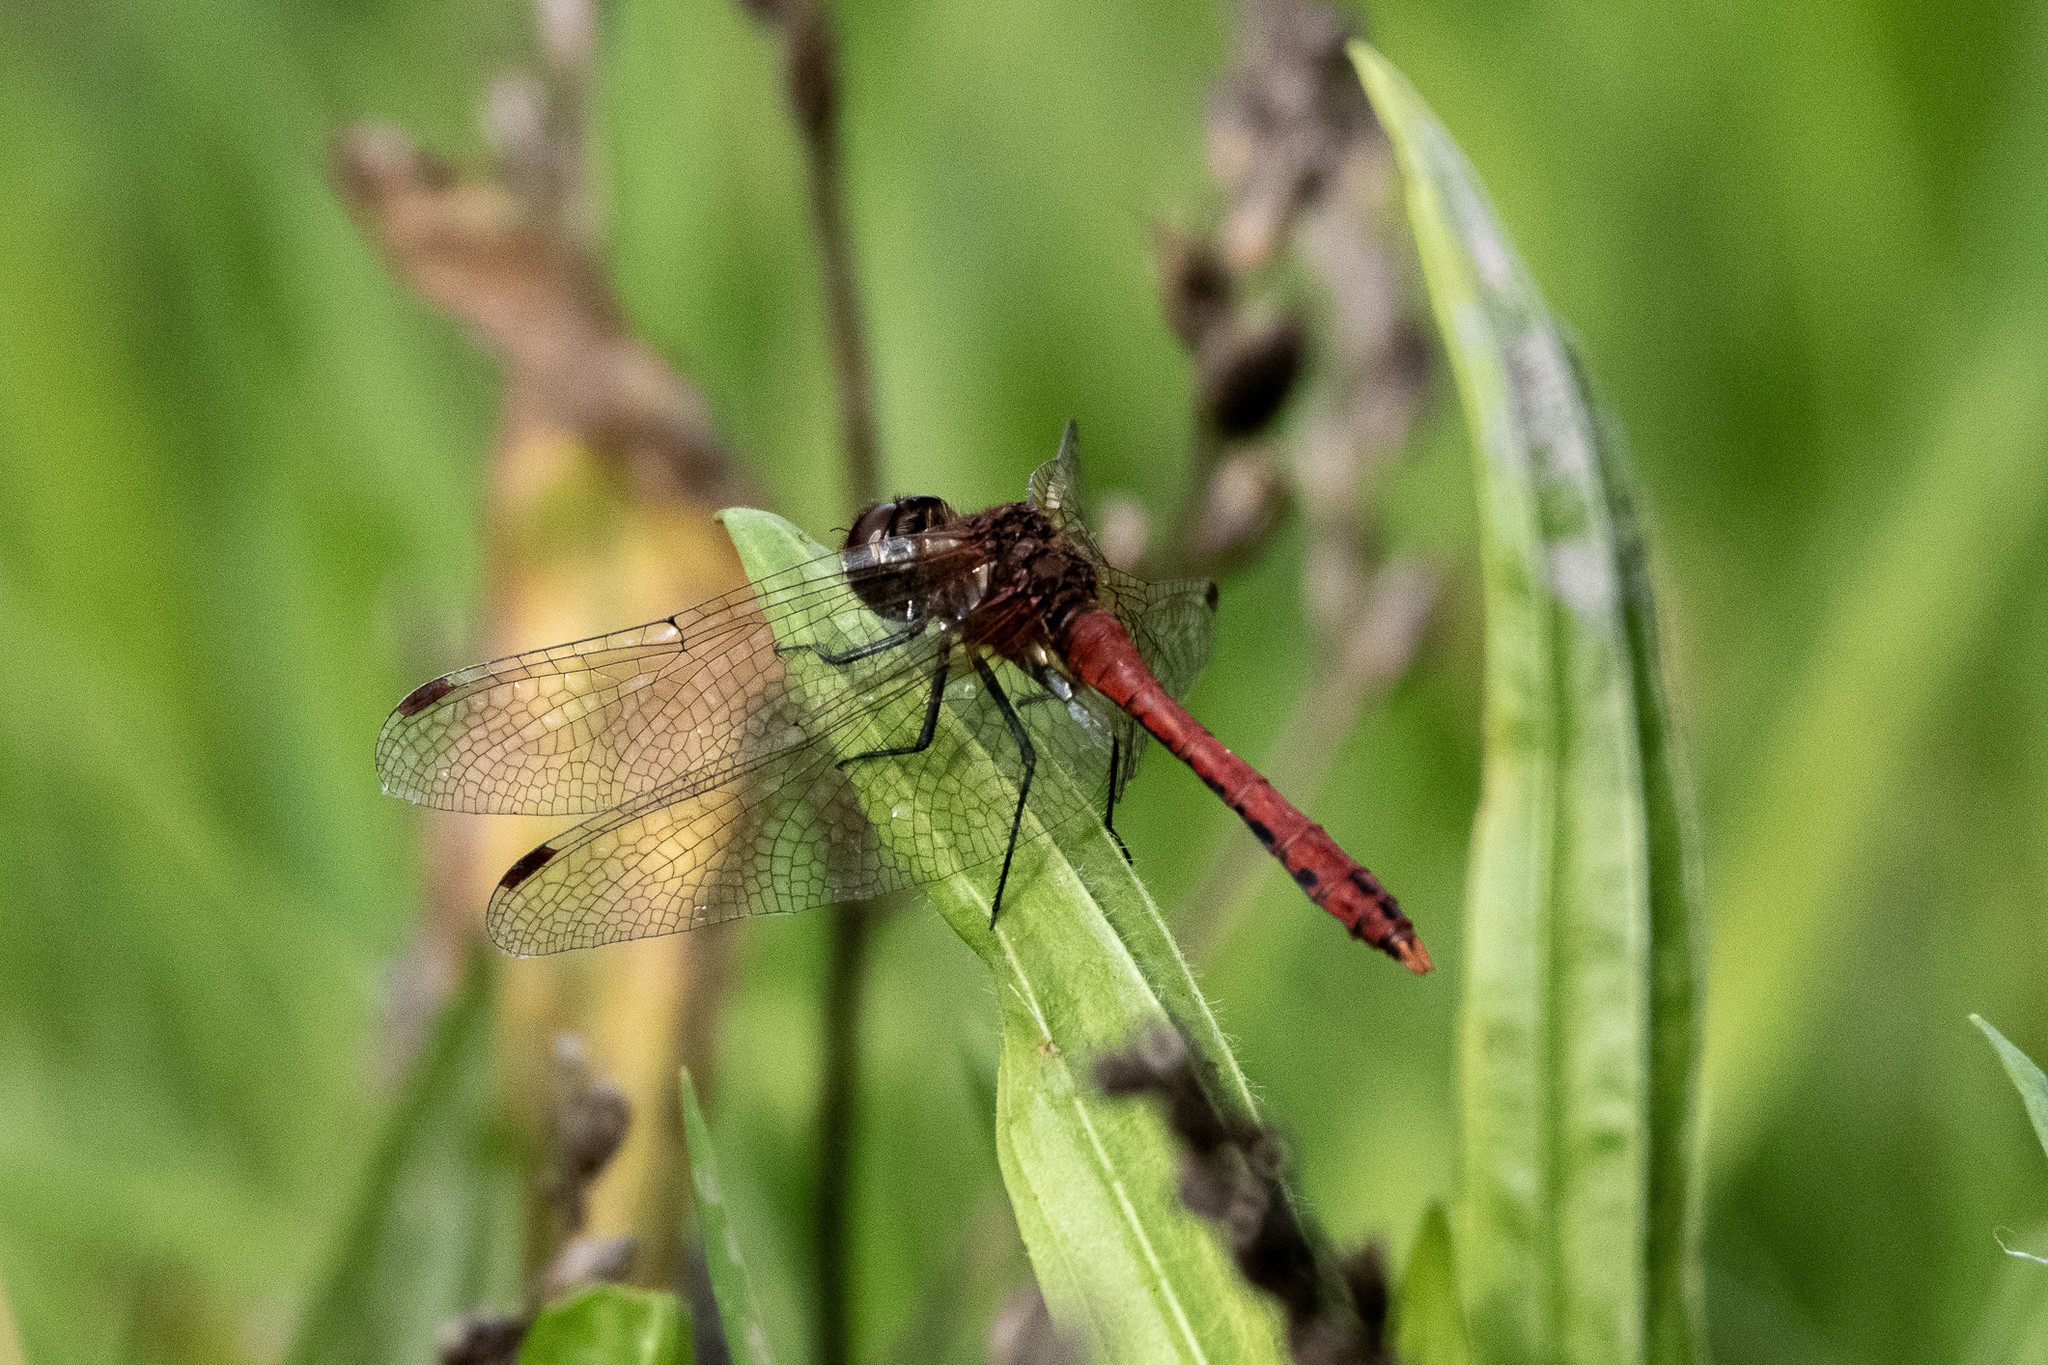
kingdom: Animalia
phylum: Arthropoda
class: Insecta
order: Odonata
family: Libellulidae
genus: Sympetrum
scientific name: Sympetrum sanguineum
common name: Ruddy darter
